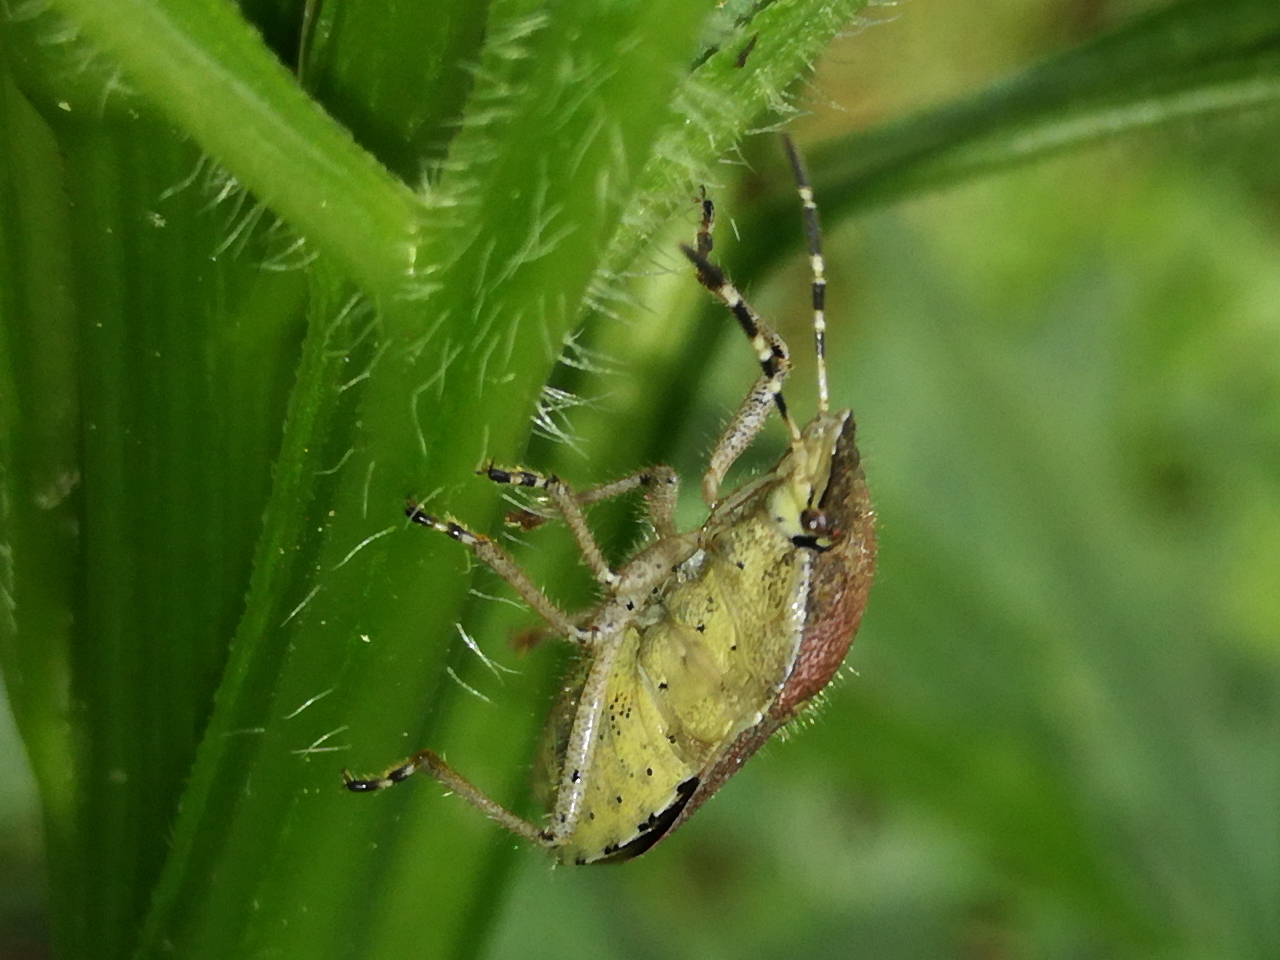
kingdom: Animalia
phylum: Arthropoda
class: Insecta
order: Hemiptera
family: Pentatomidae
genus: Dolycoris
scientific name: Dolycoris baccarum
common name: Sloe bug
